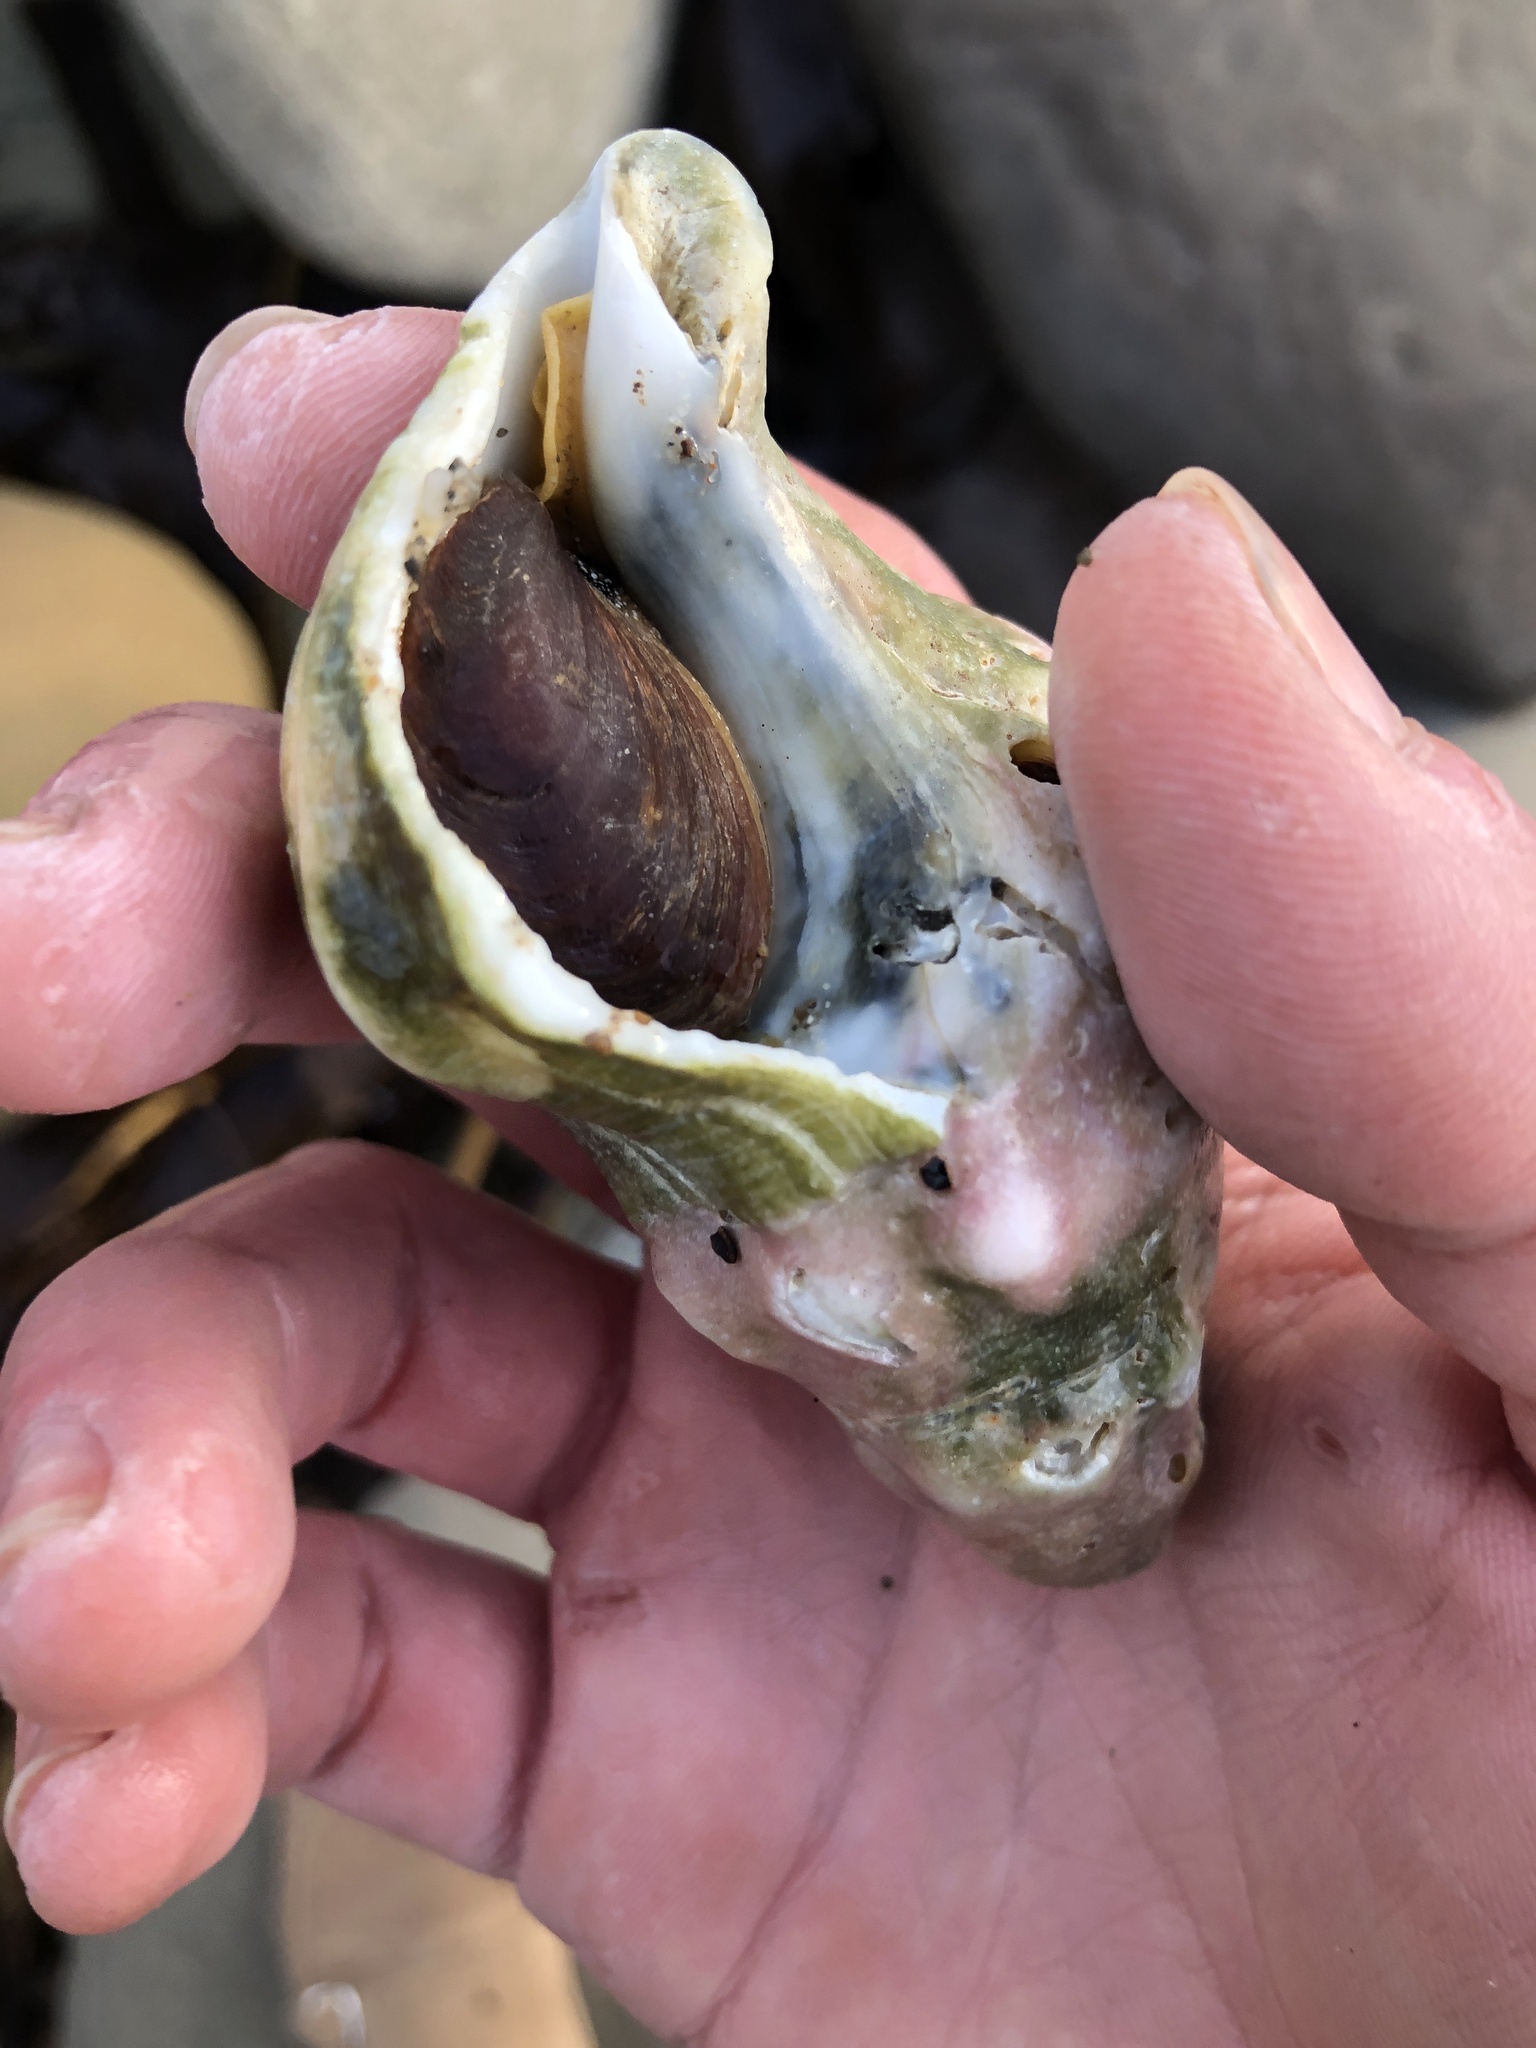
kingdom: Animalia
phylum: Mollusca
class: Gastropoda
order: Neogastropoda
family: Austrosiphonidae
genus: Kelletia
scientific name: Kelletia kelletii
